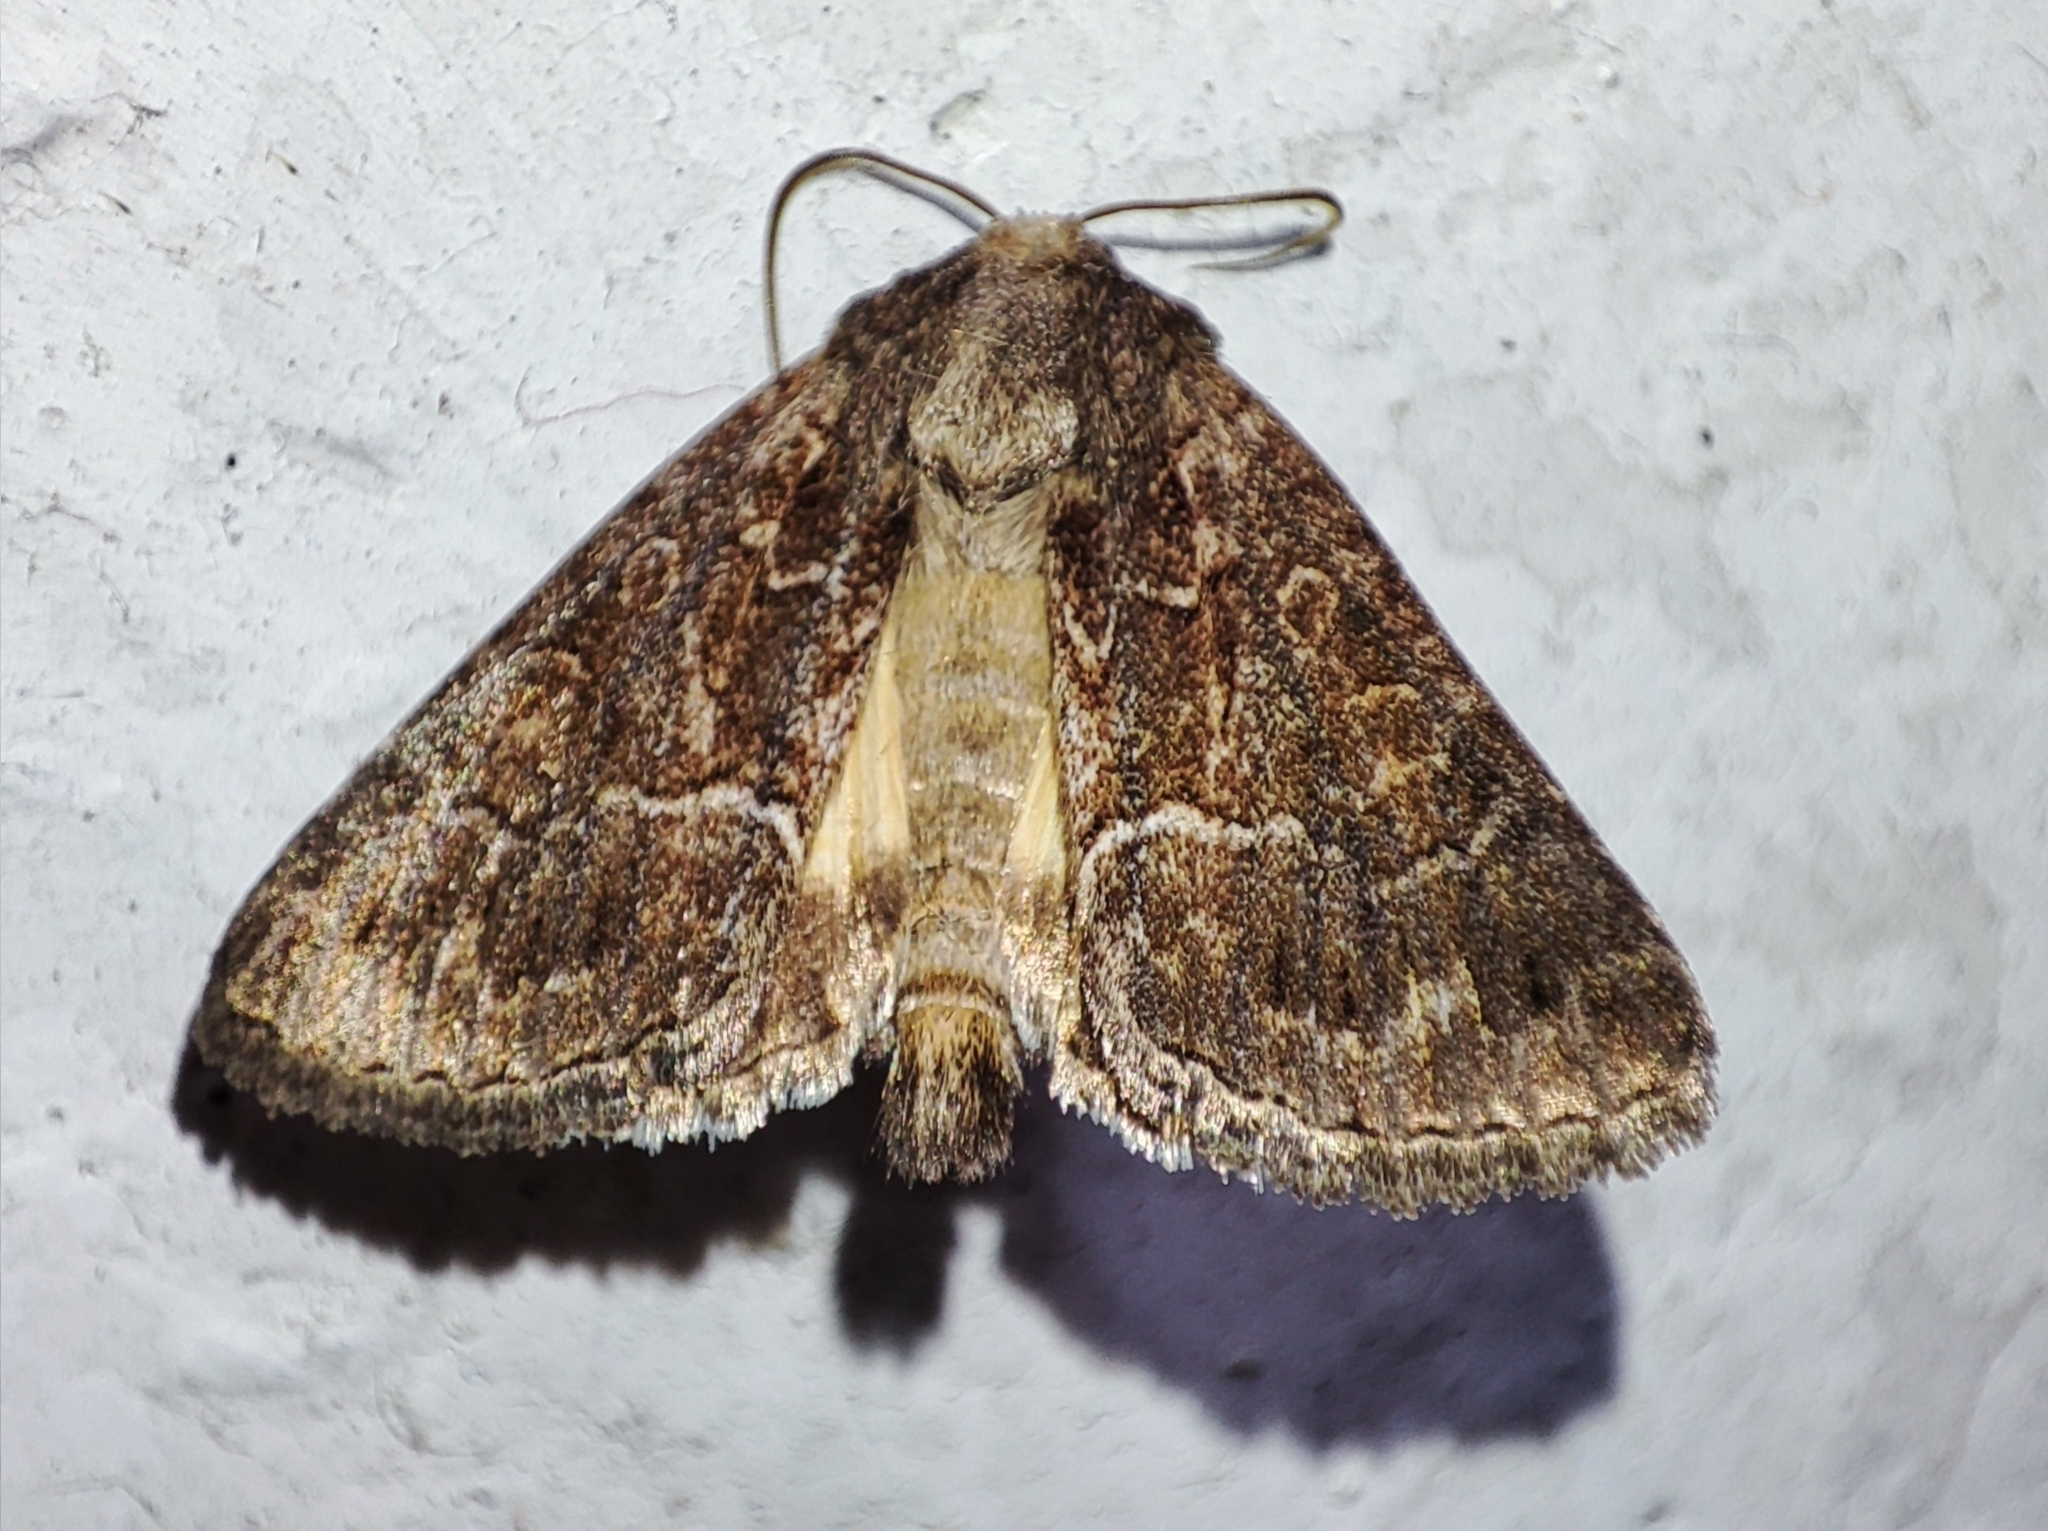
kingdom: Animalia
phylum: Arthropoda
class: Insecta
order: Lepidoptera
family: Noctuidae
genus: Thalpophila
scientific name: Thalpophila matura
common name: Straw underwing
